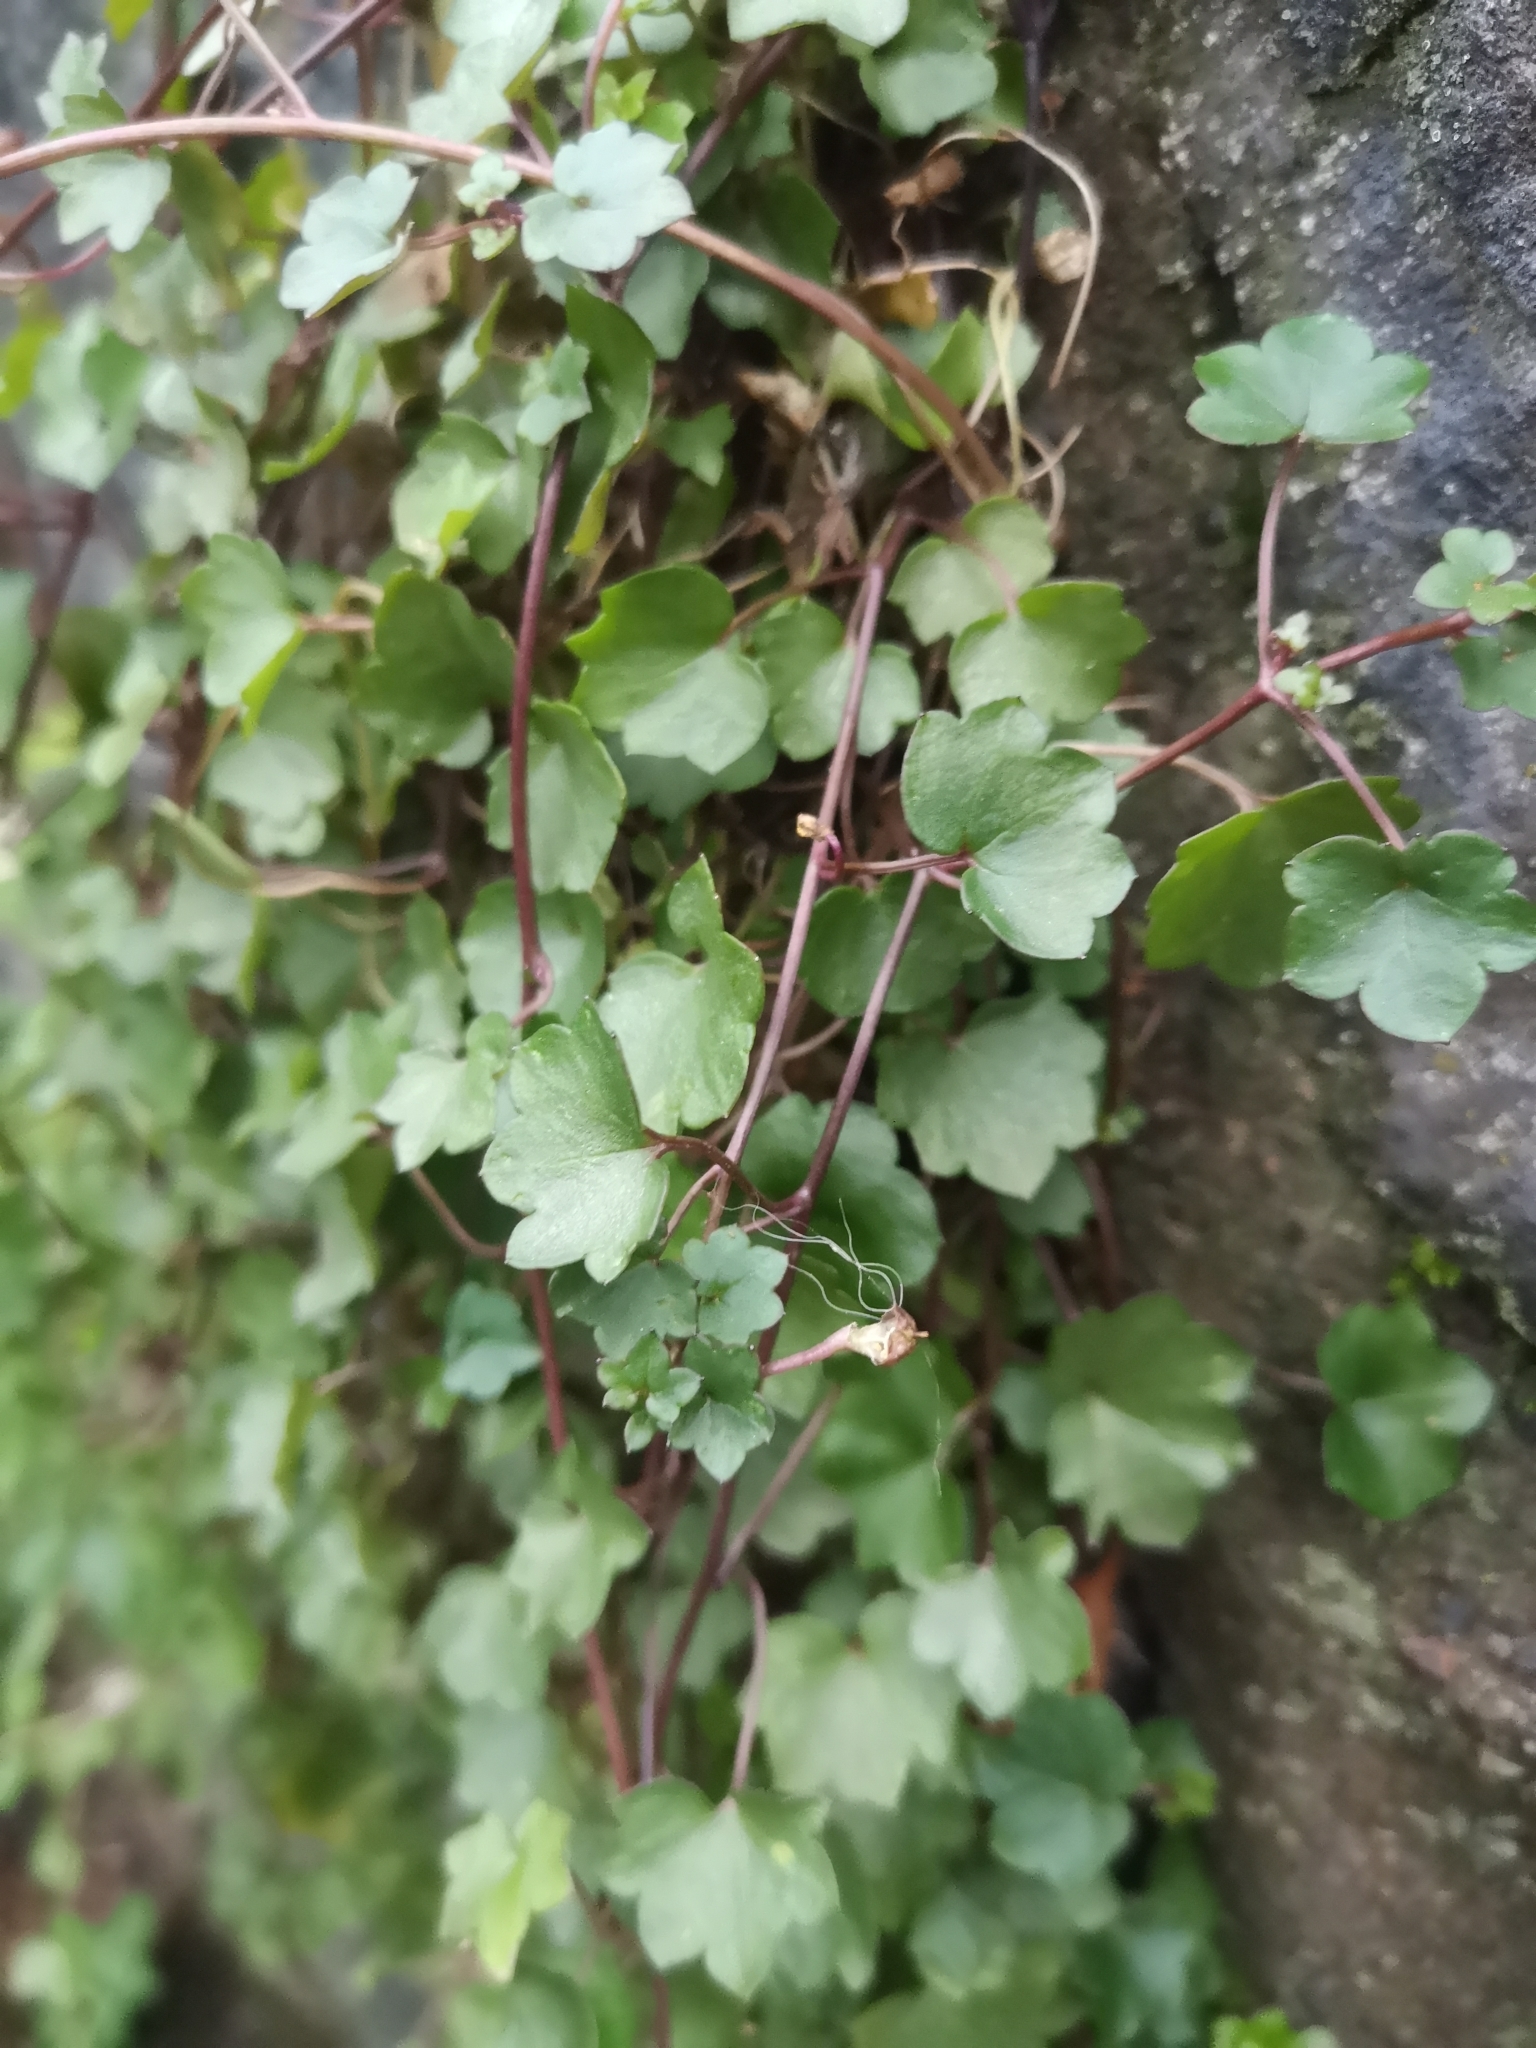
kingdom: Plantae
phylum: Tracheophyta
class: Magnoliopsida
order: Lamiales
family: Plantaginaceae
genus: Cymbalaria
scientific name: Cymbalaria muralis
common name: Ivy-leaved toadflax
